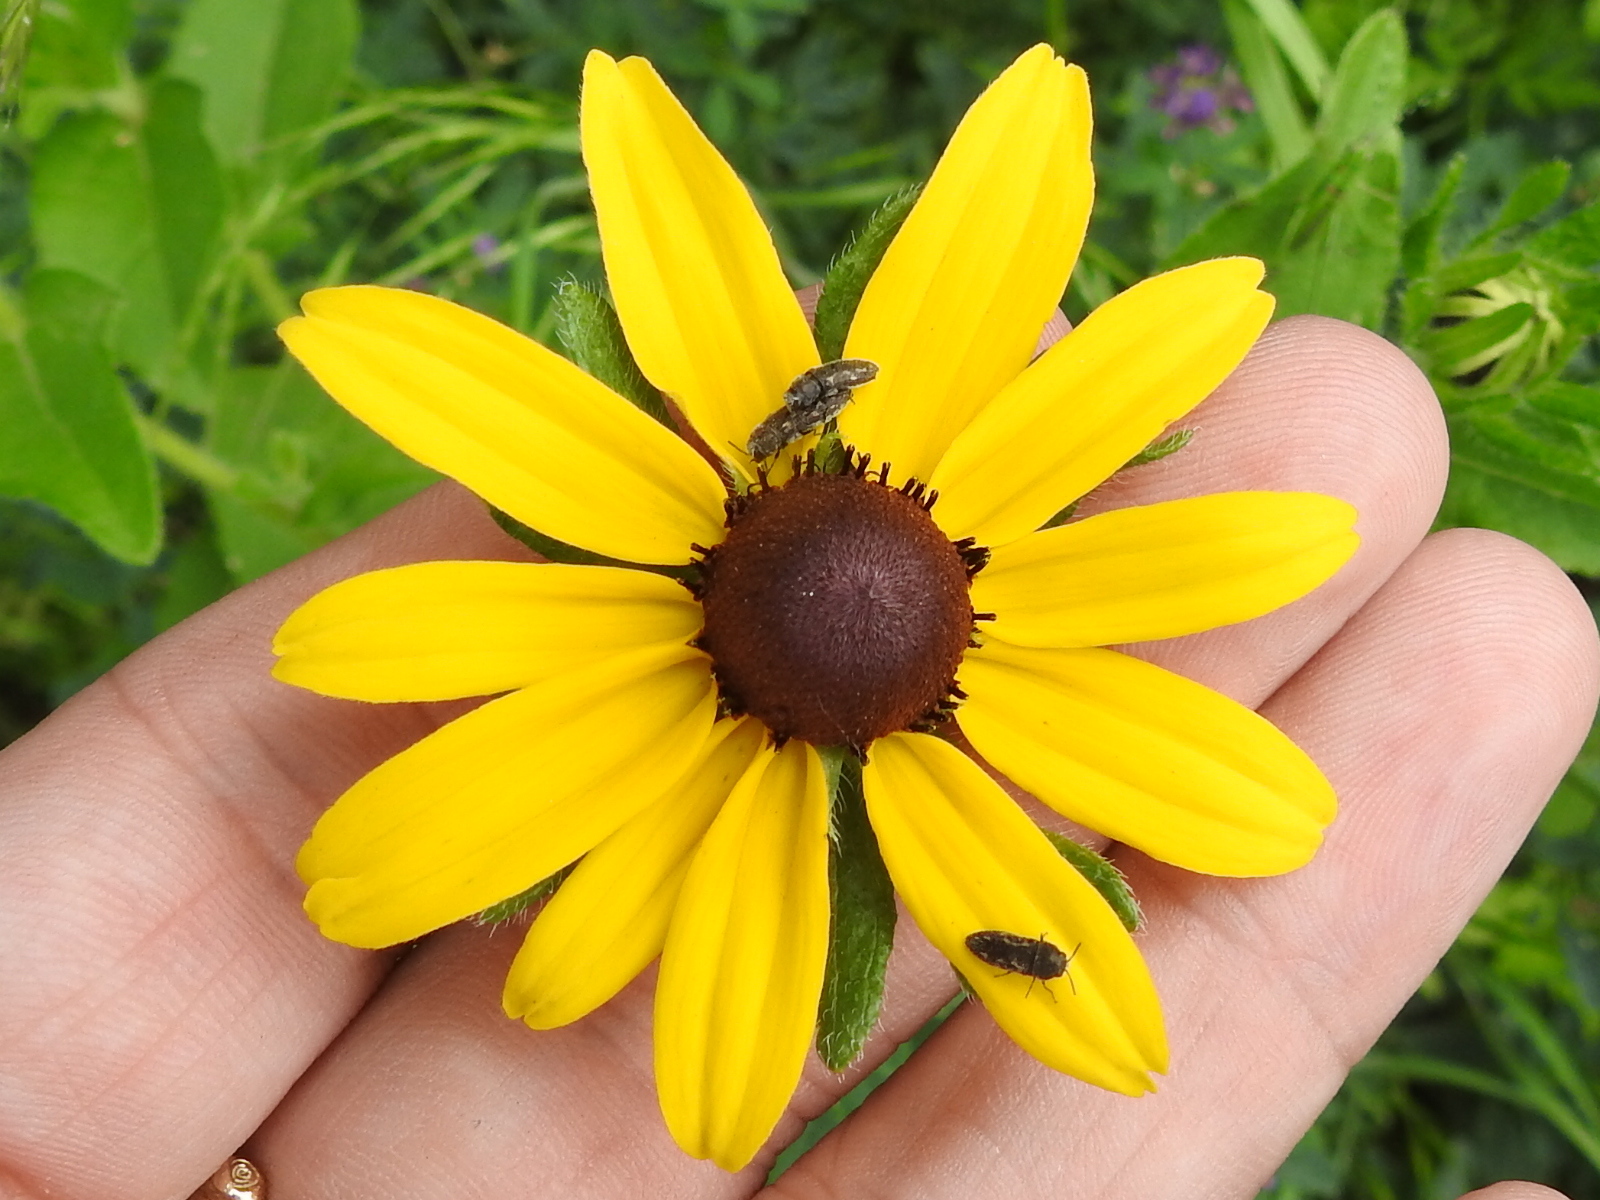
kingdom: Plantae
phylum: Tracheophyta
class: Magnoliopsida
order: Asterales
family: Asteraceae
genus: Rudbeckia
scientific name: Rudbeckia hirta
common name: Black-eyed-susan
